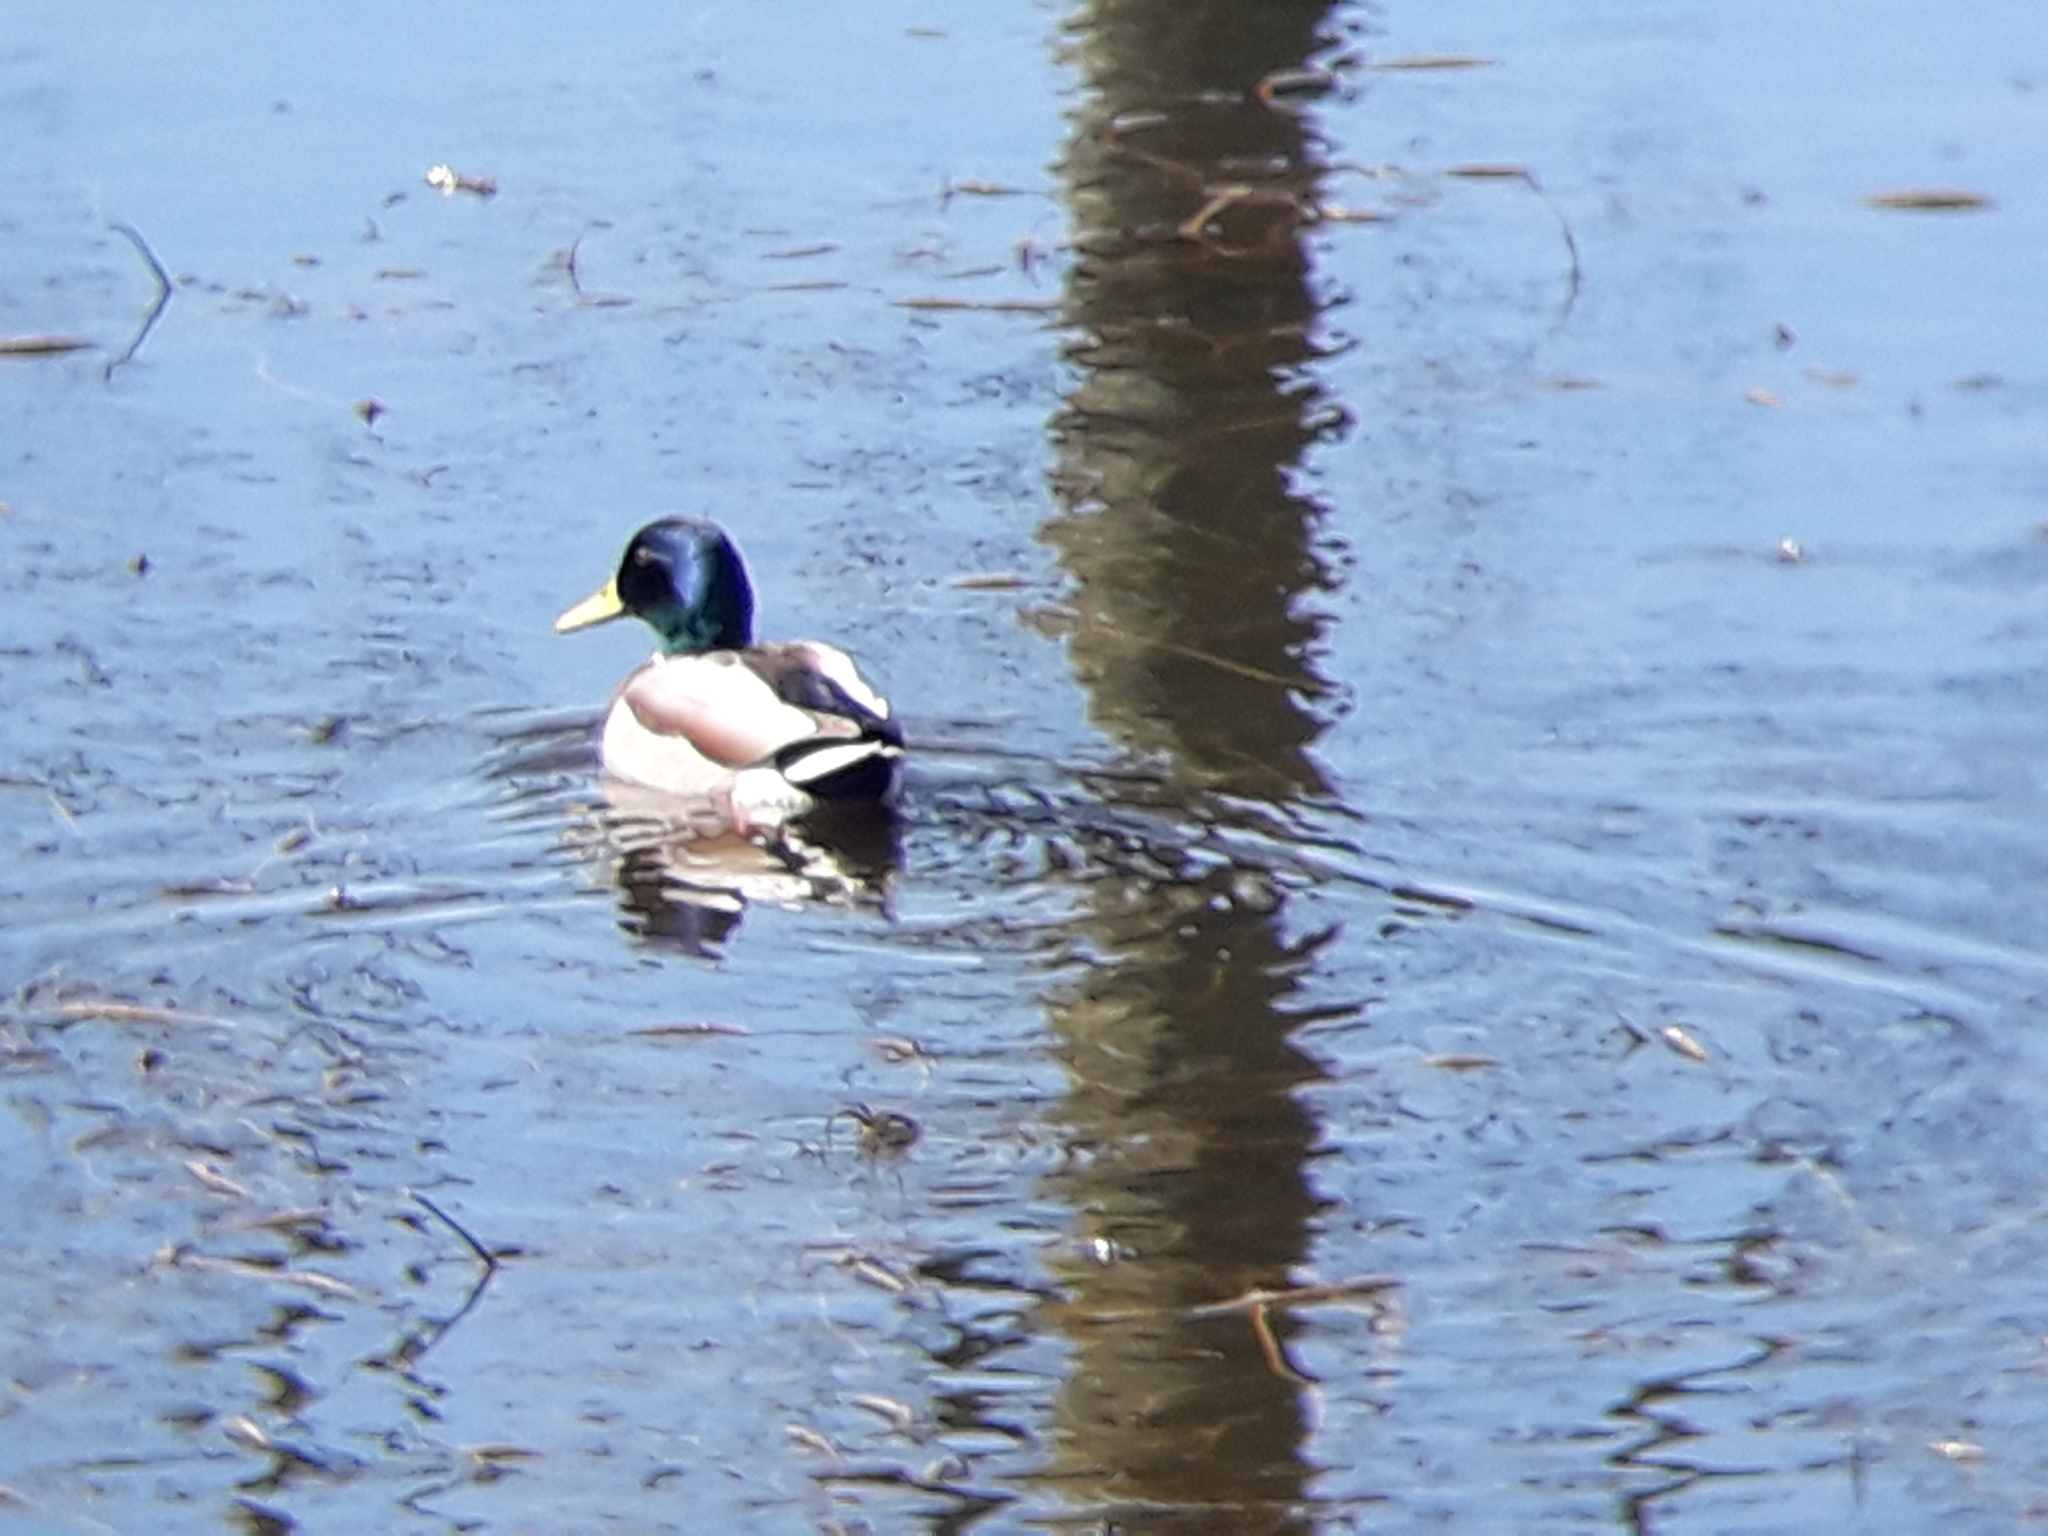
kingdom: Animalia
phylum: Chordata
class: Aves
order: Anseriformes
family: Anatidae
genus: Anas
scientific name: Anas platyrhynchos
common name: Mallard
